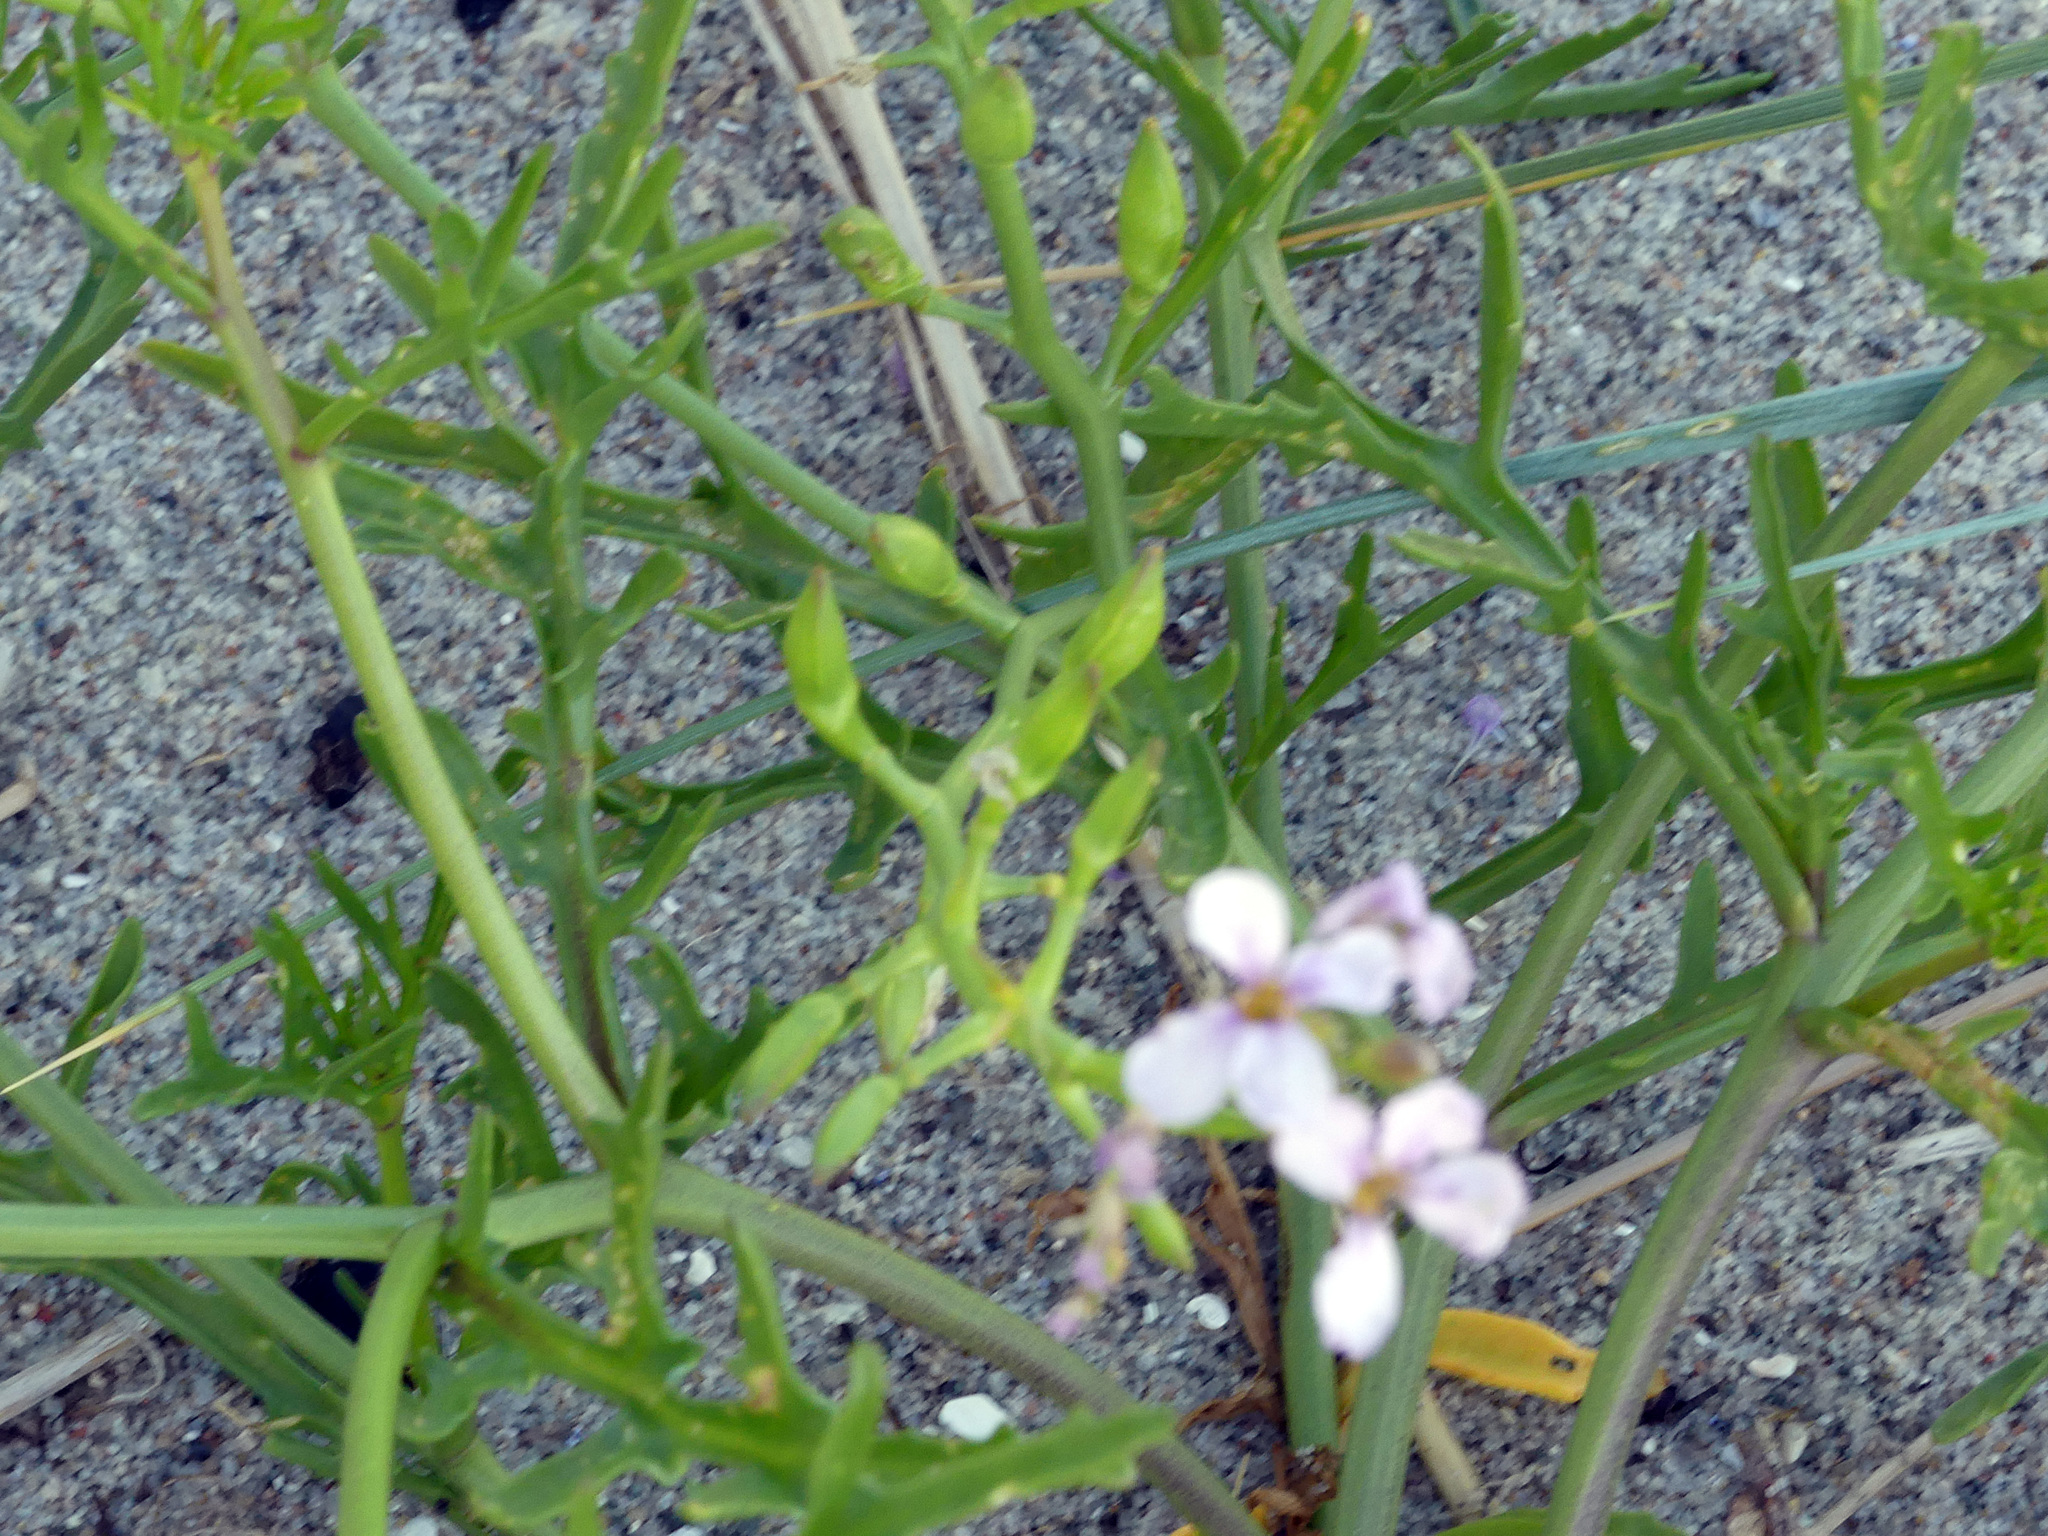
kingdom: Plantae
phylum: Tracheophyta
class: Magnoliopsida
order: Brassicales
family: Brassicaceae
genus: Cakile
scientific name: Cakile maritima
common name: Sea rocket
